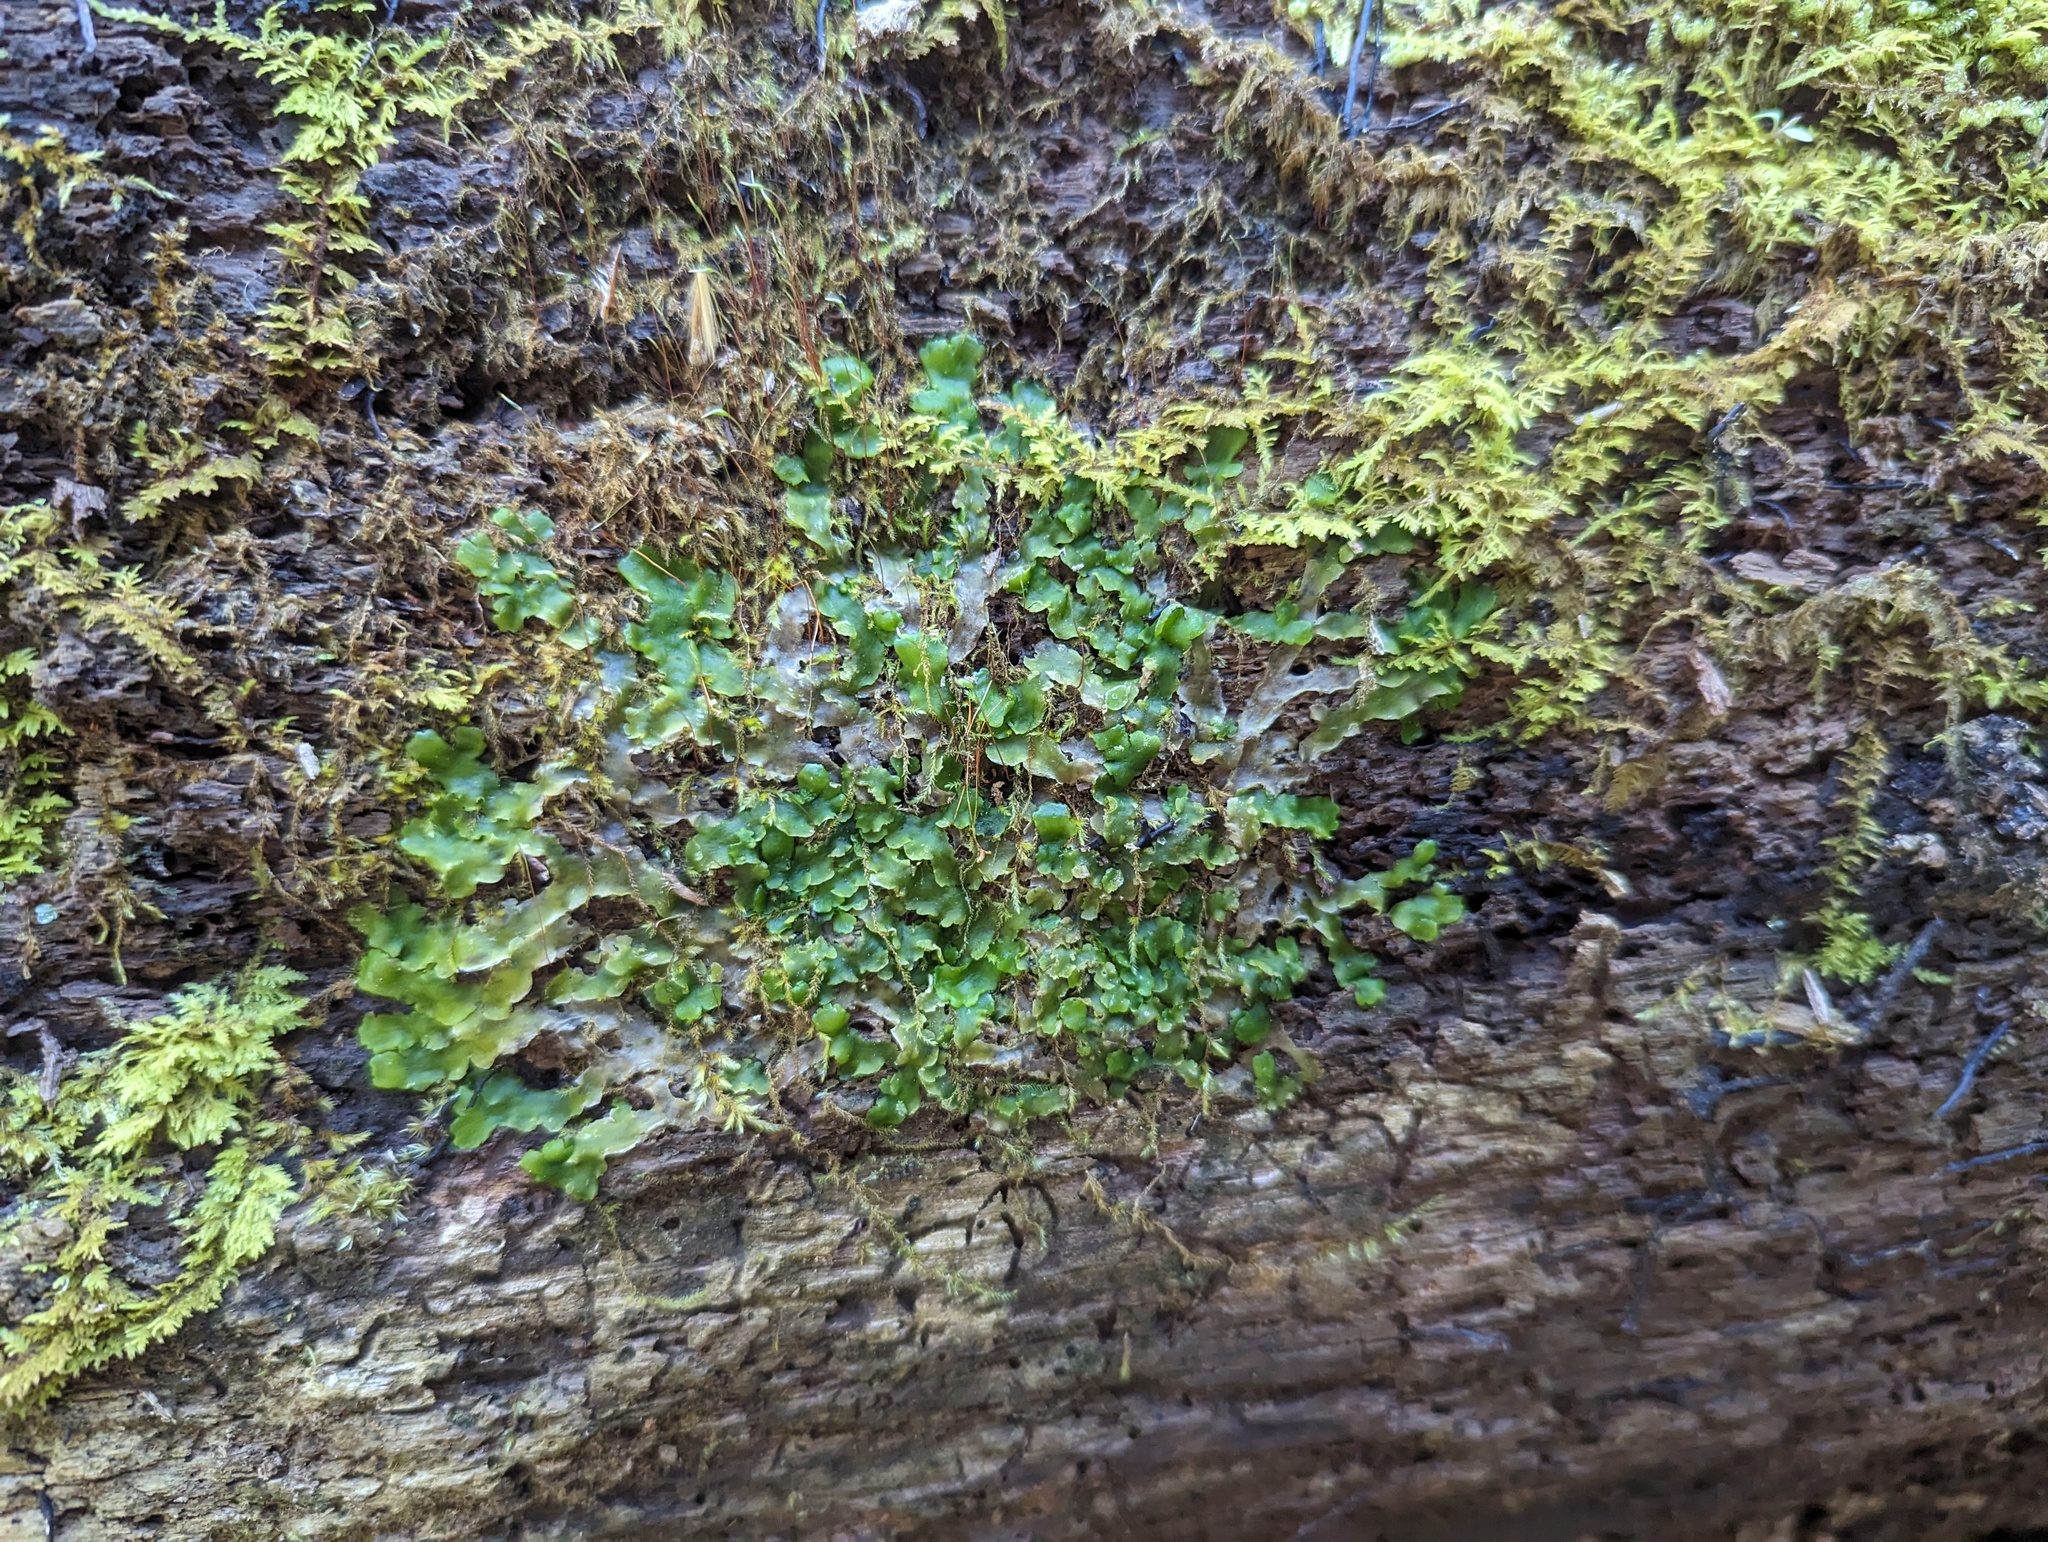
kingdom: Plantae
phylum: Marchantiophyta
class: Jungermanniopsida
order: Metzgeriales
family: Aneuraceae
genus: Aneura
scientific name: Aneura pinguis
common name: Common greasewort
